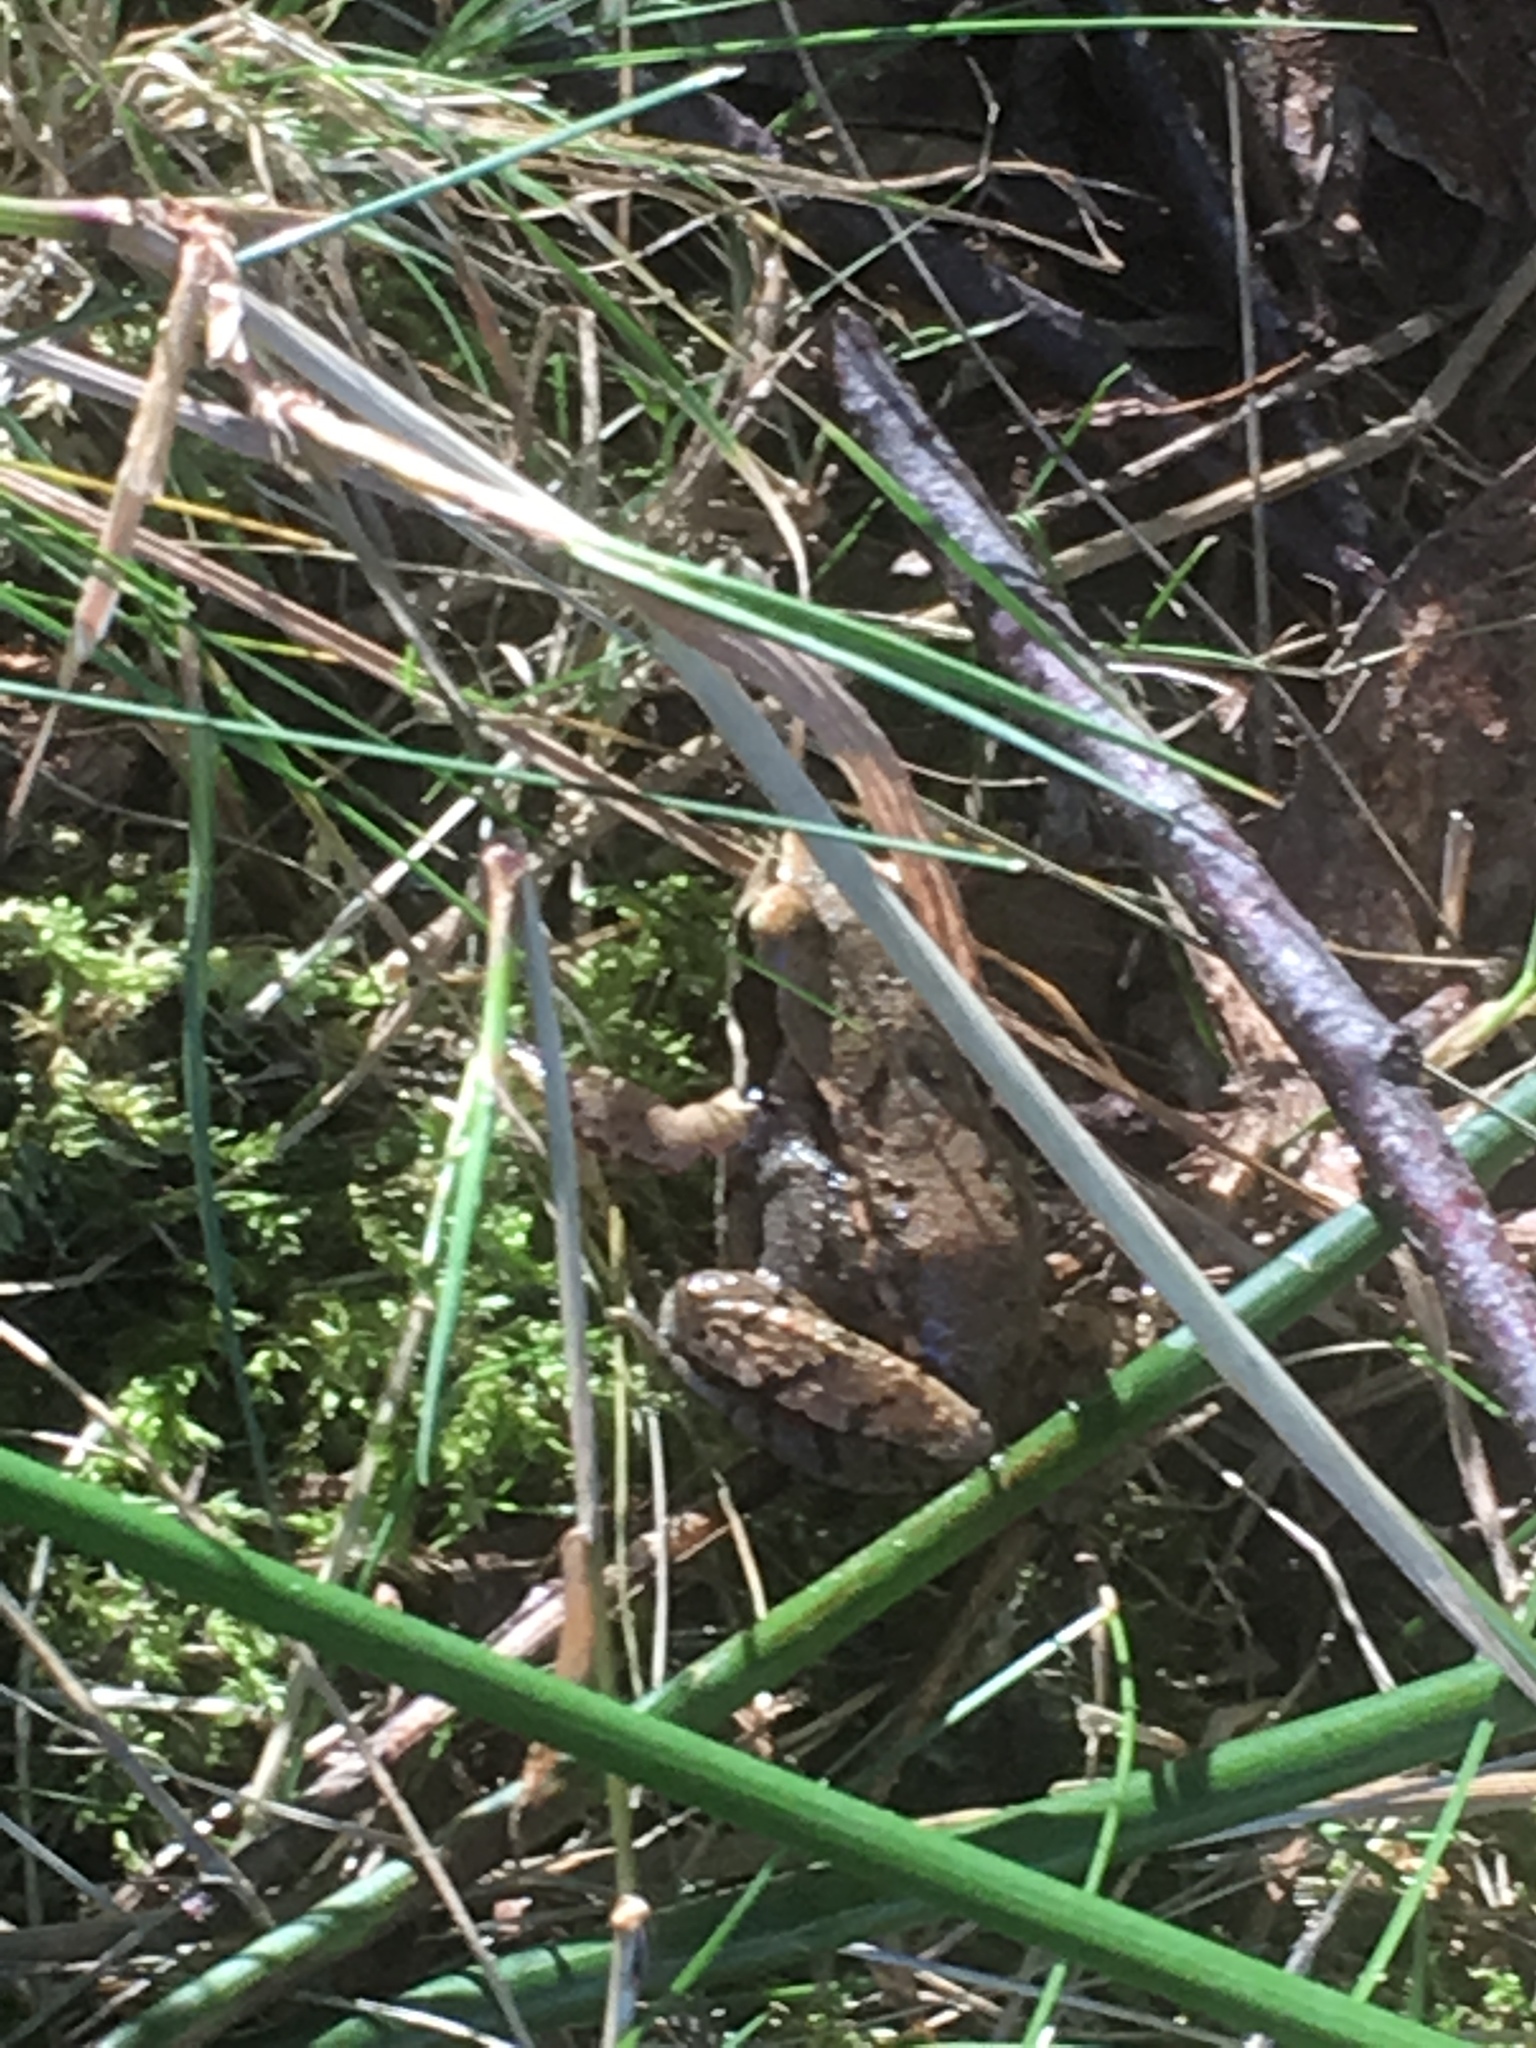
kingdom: Animalia
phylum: Chordata
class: Amphibia
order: Anura
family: Ranidae
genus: Rana
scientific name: Rana temporaria
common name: Common frog
